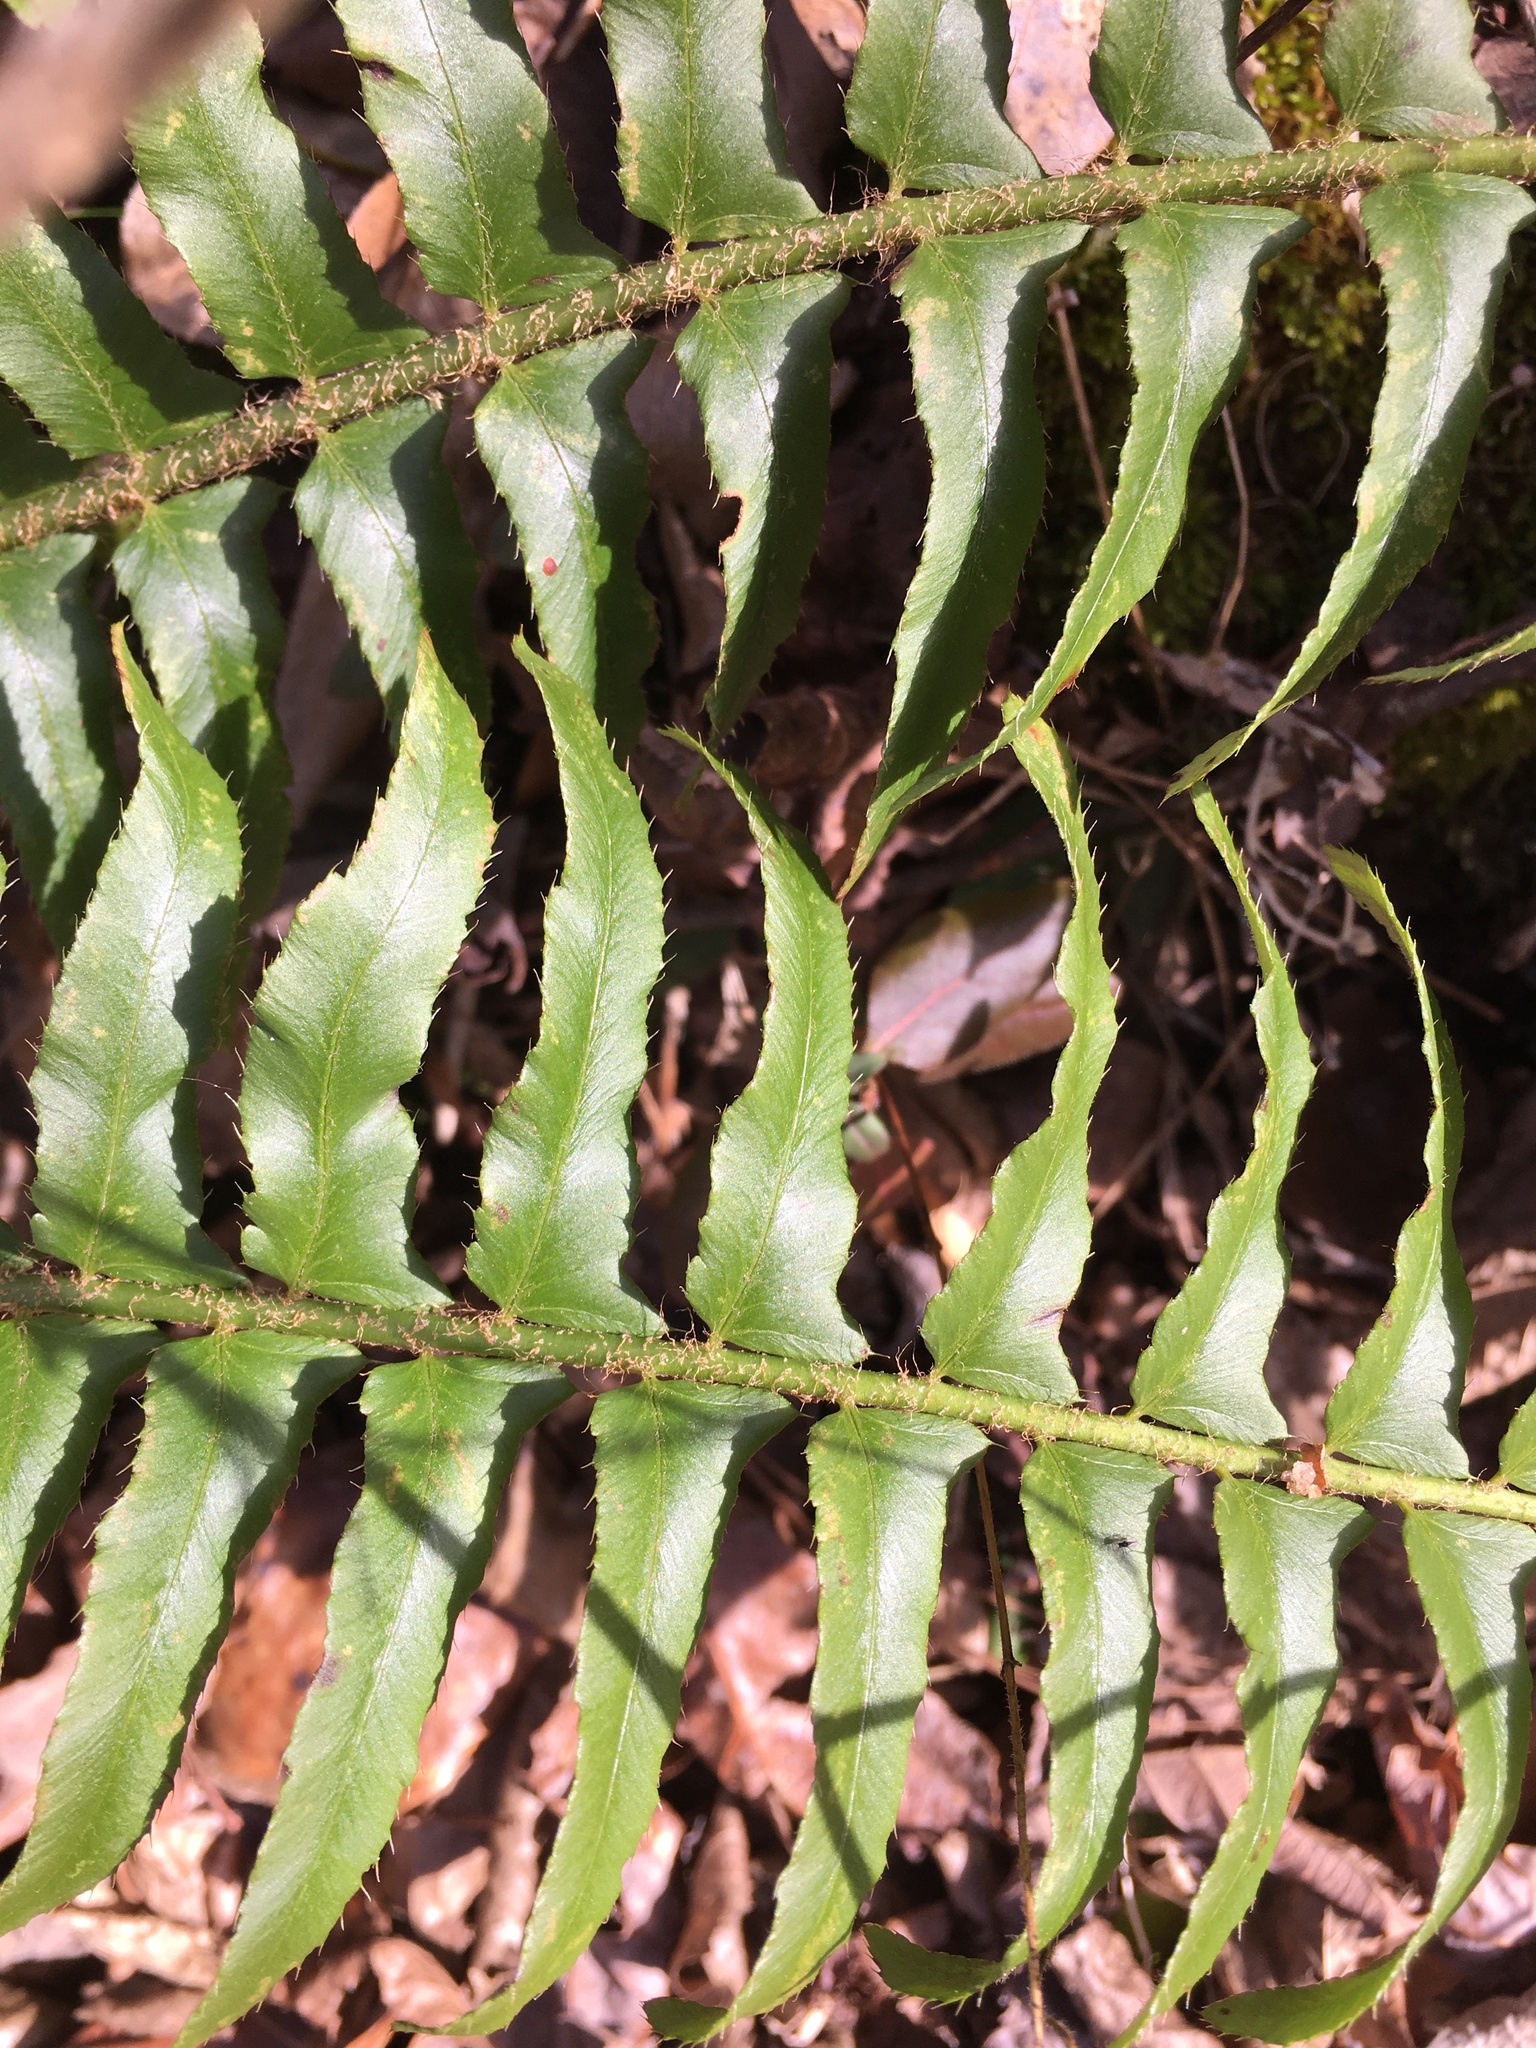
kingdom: Plantae
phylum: Tracheophyta
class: Polypodiopsida
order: Polypodiales
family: Dryopteridaceae
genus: Polystichum
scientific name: Polystichum acrostichoides
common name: Christmas fern
